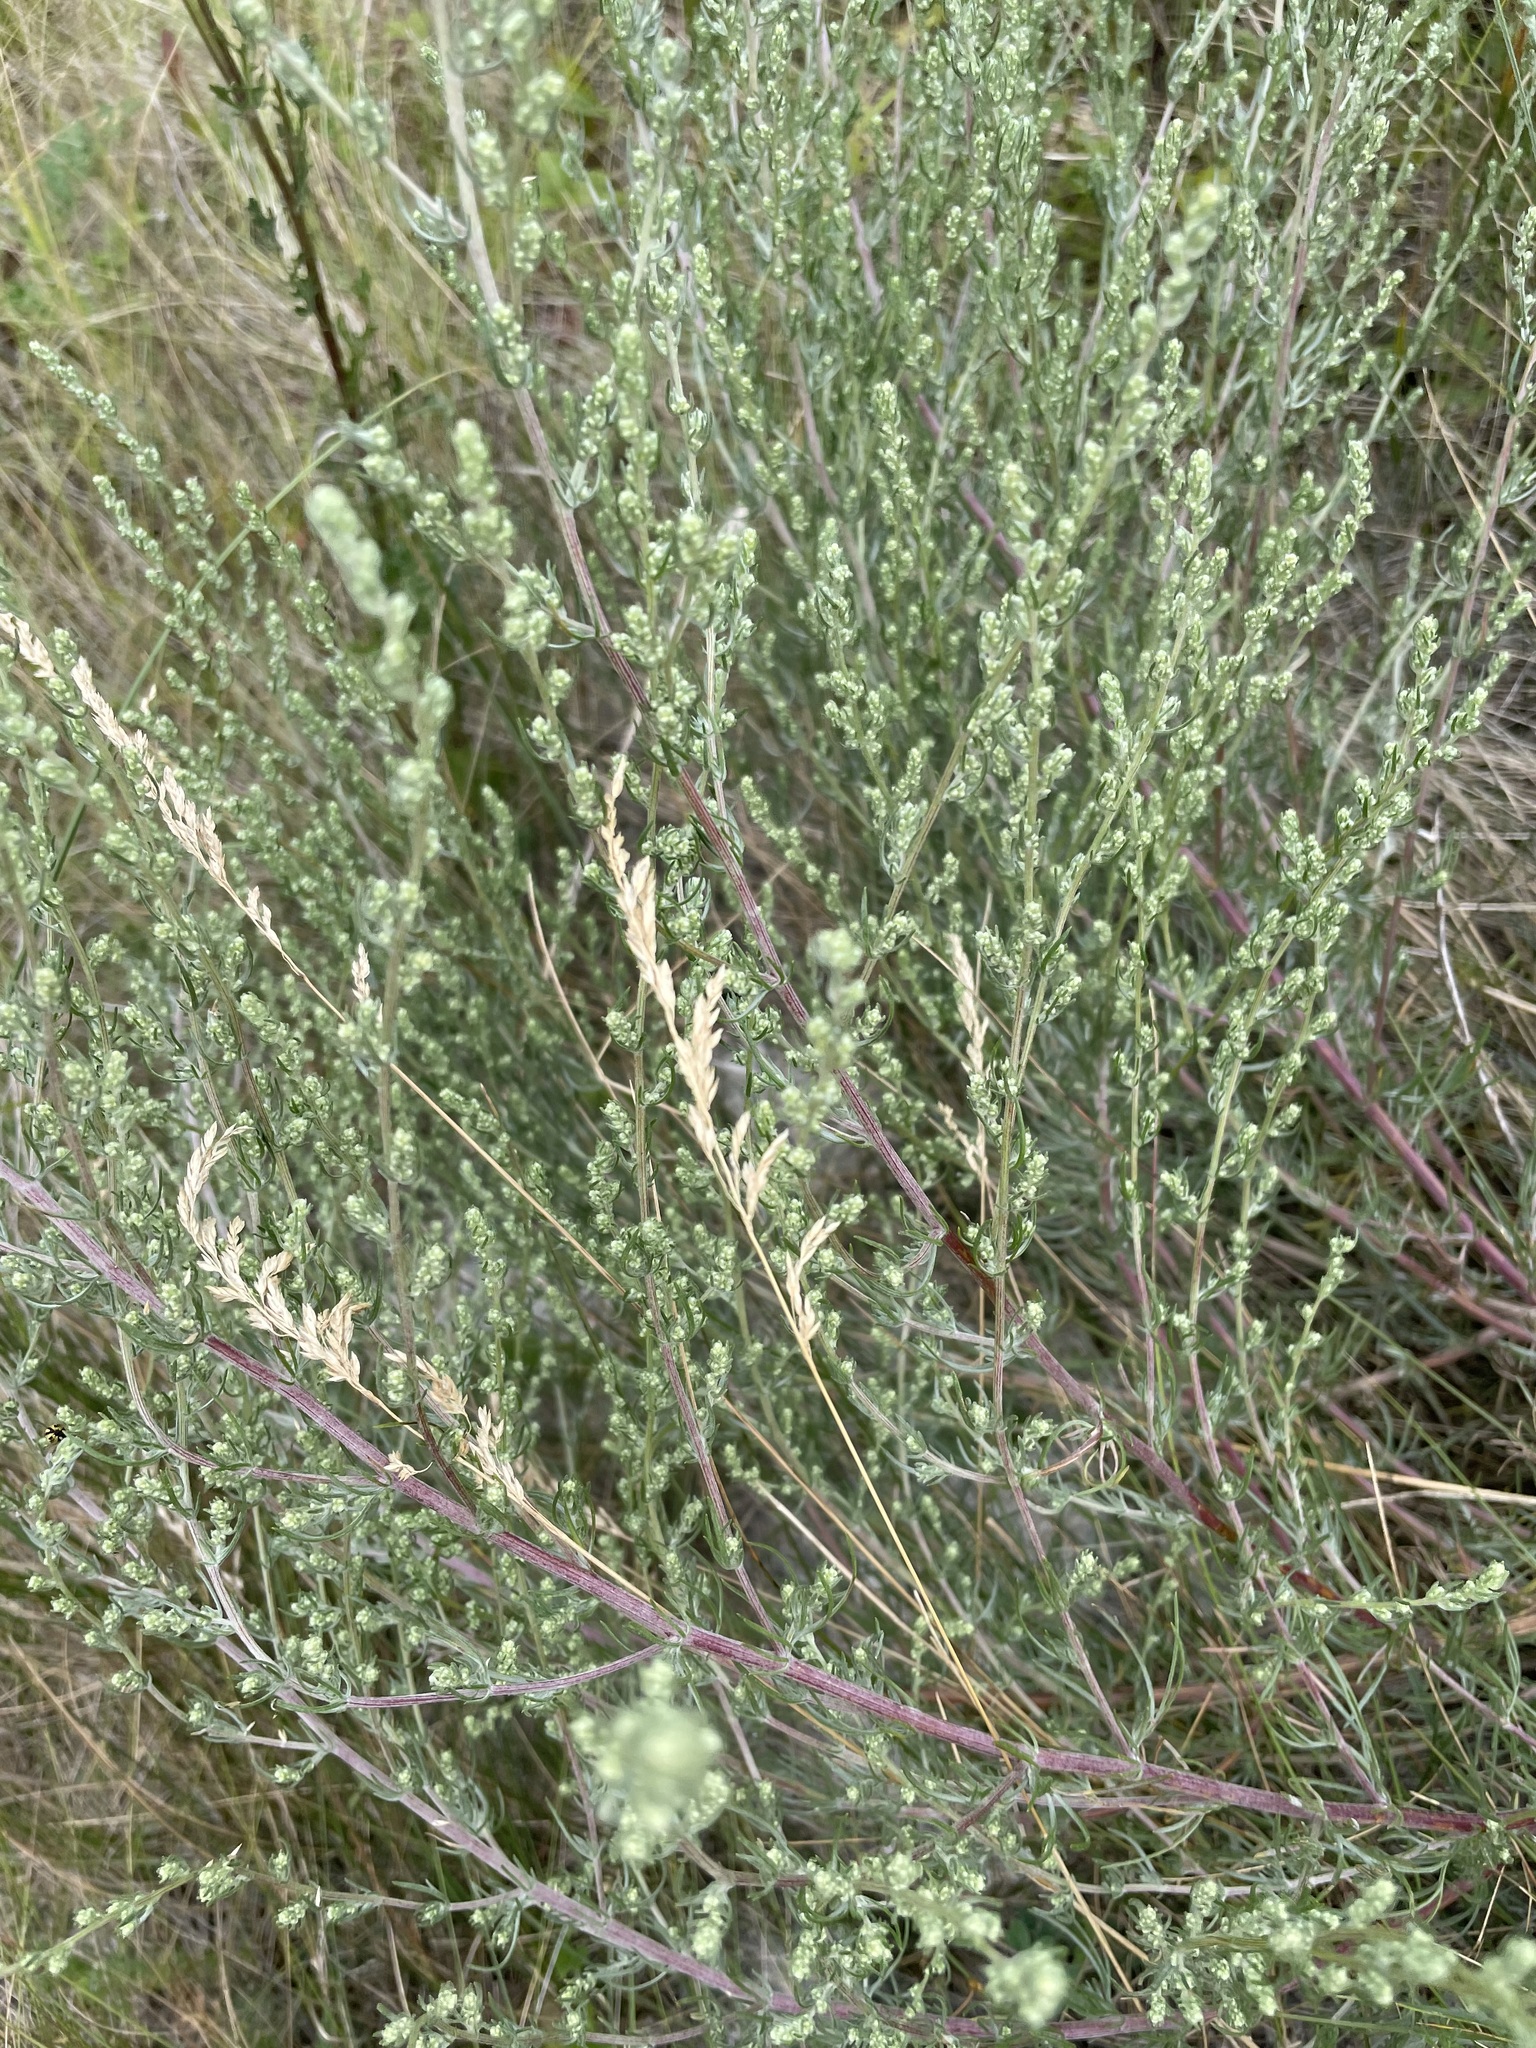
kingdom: Plantae
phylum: Tracheophyta
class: Magnoliopsida
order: Asterales
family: Asteraceae
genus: Artemisia
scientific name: Artemisia campestris
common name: Field wormwood
